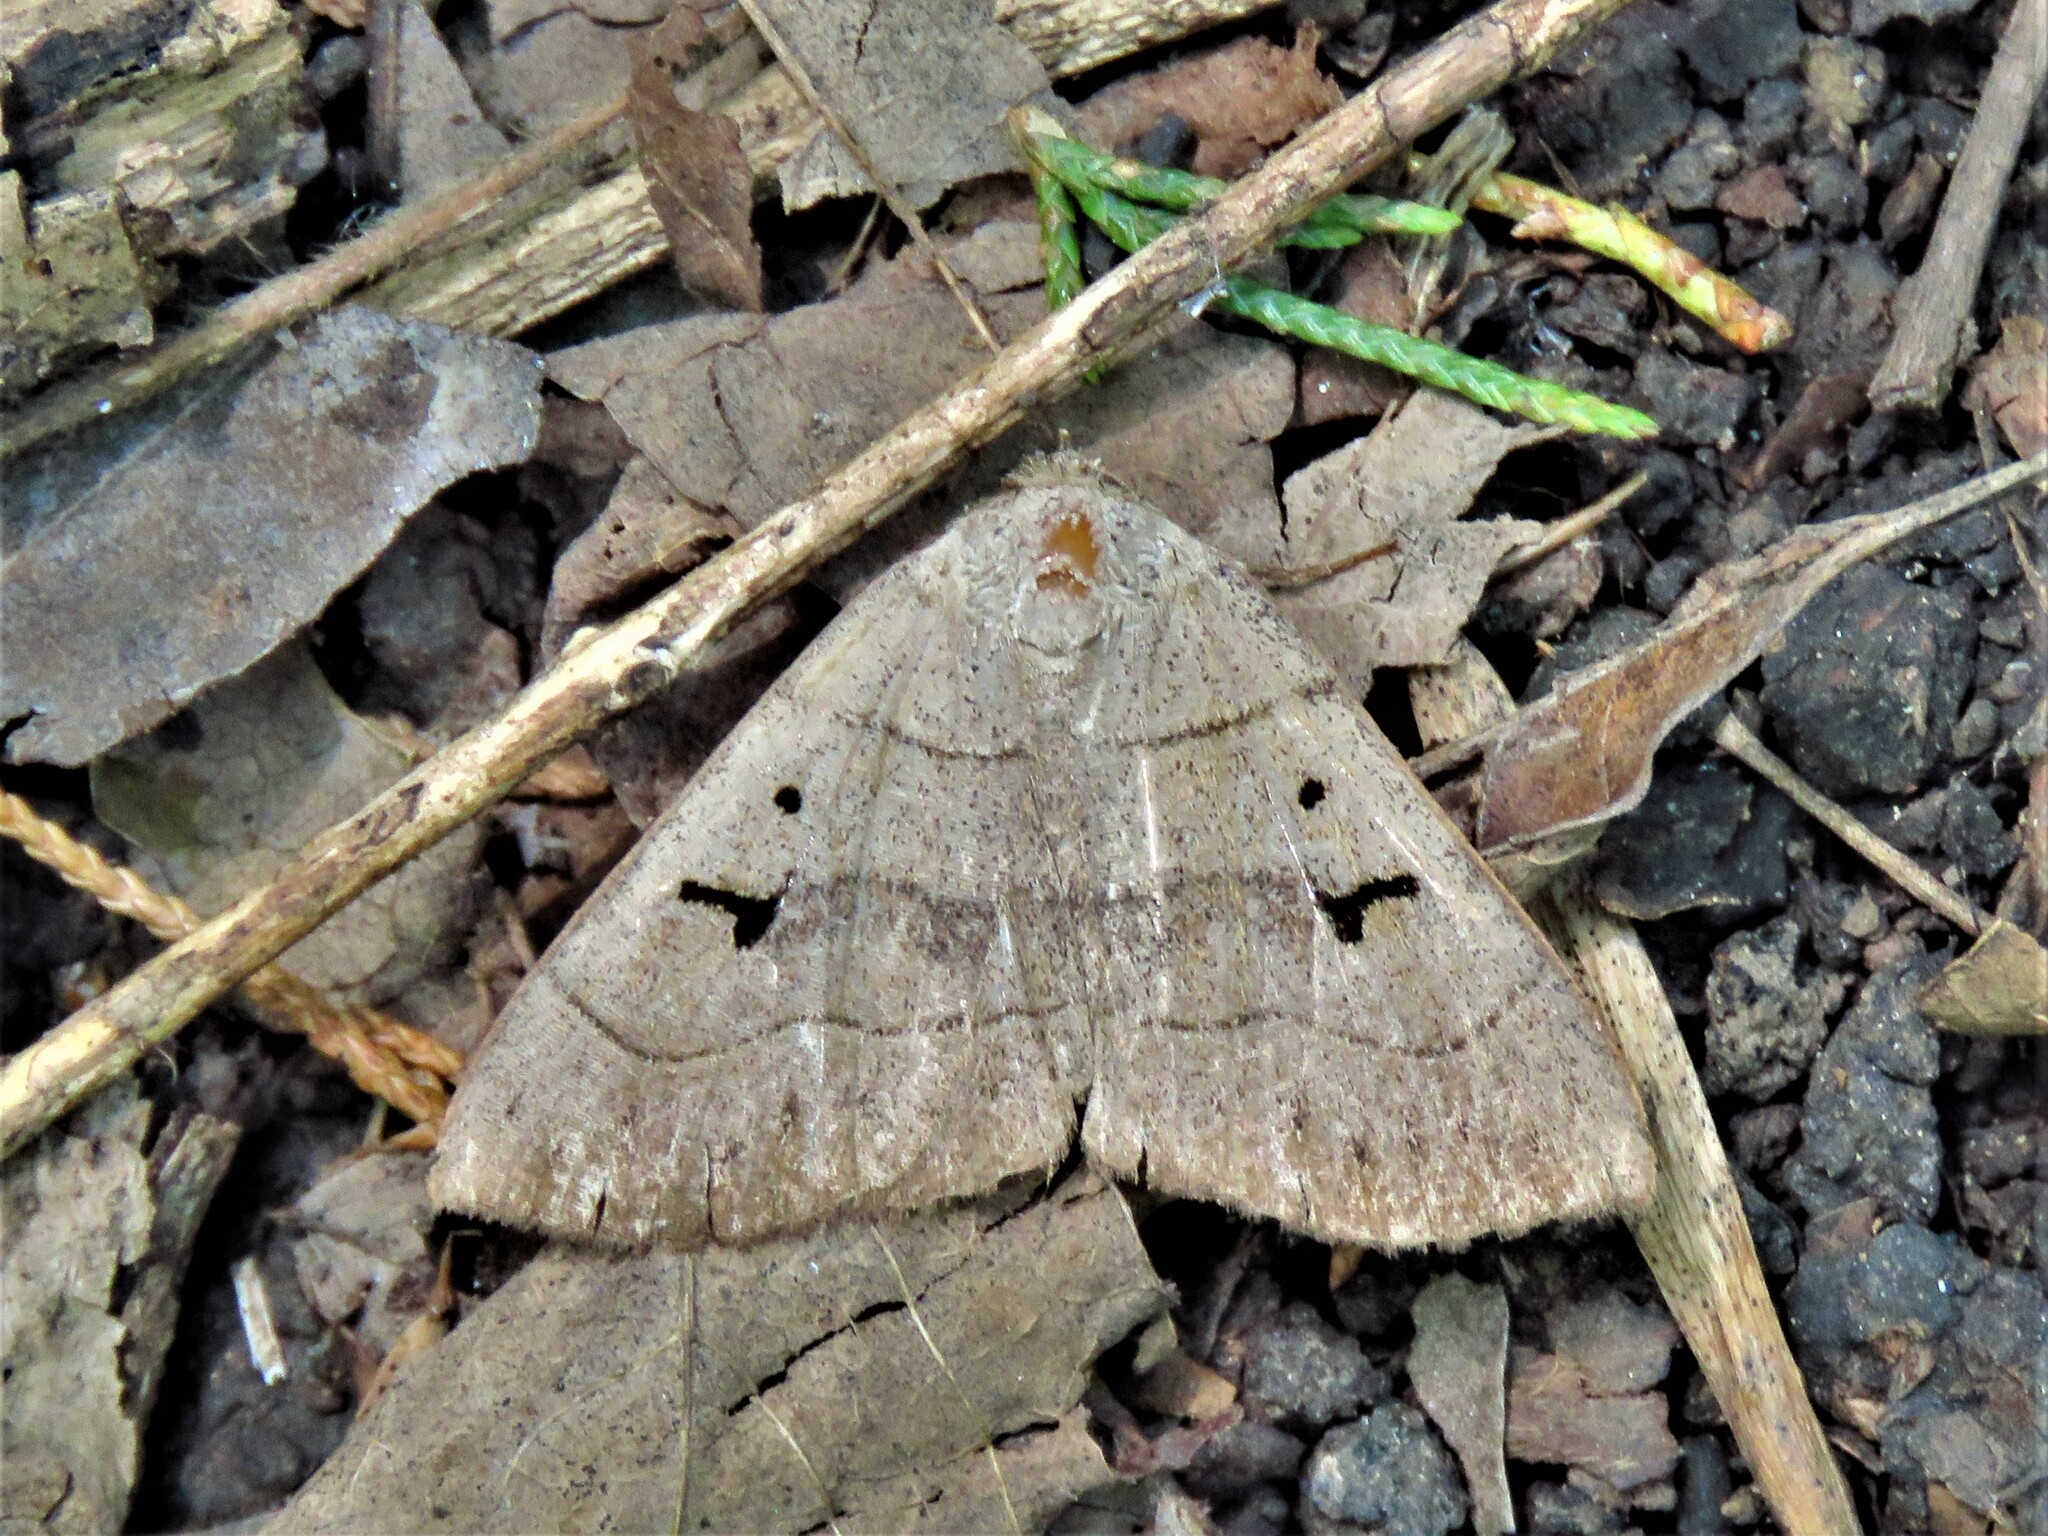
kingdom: Animalia
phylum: Arthropoda
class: Insecta
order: Lepidoptera
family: Erebidae
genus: Panopoda
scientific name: Panopoda carneicosta
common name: Brown panopoda moth
